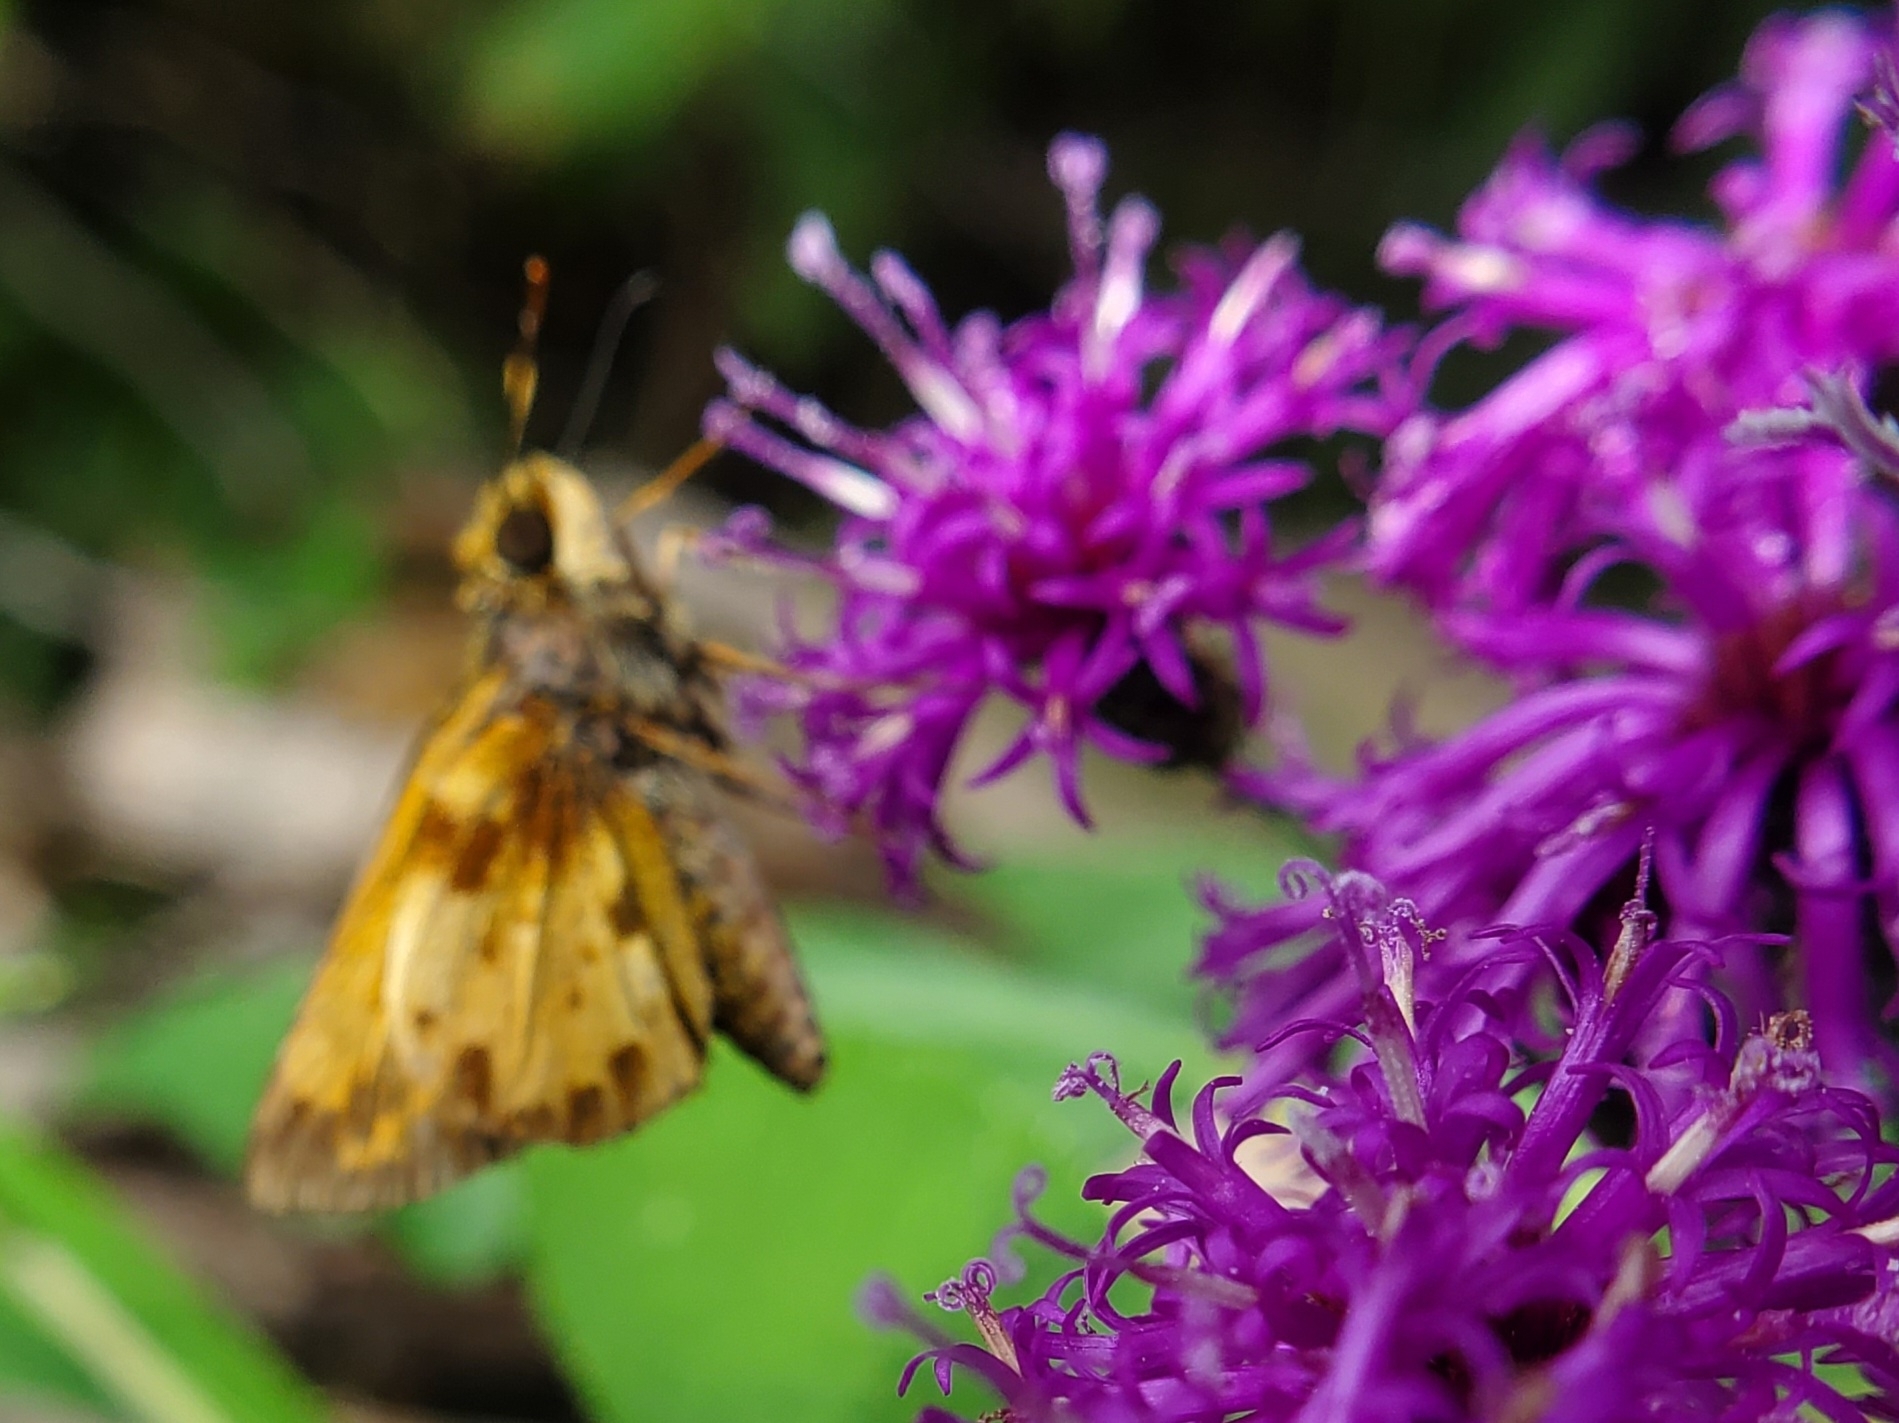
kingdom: Animalia
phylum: Arthropoda
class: Insecta
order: Lepidoptera
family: Hesperiidae
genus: Lon
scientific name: Lon zabulon
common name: Zabulon skipper
